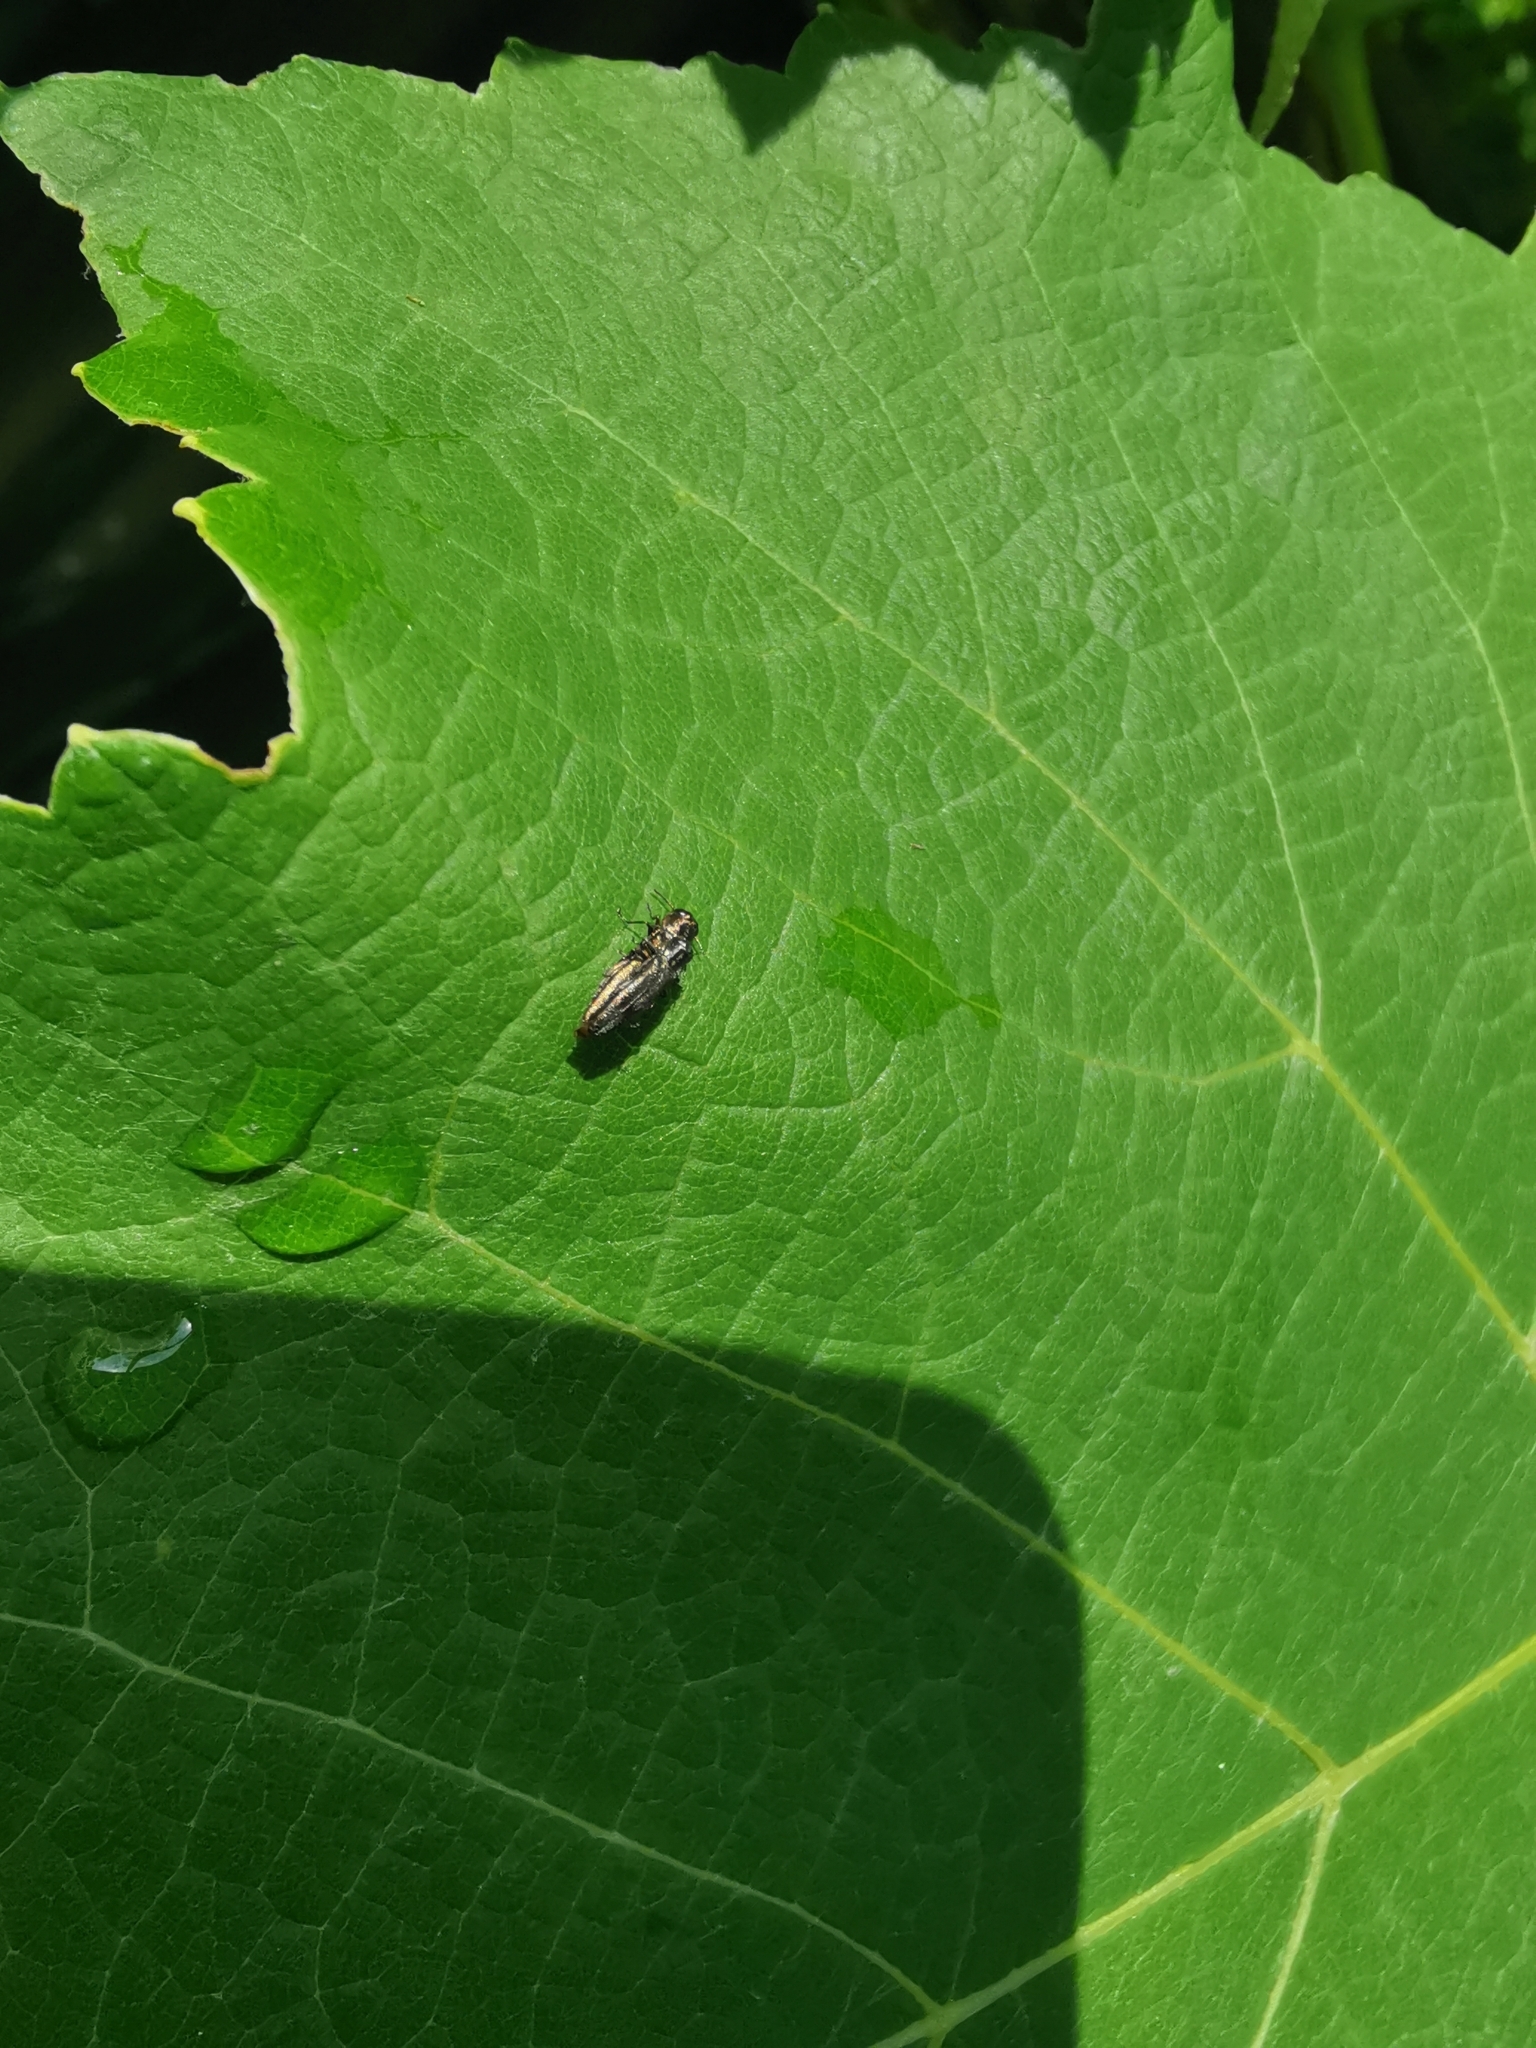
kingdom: Animalia
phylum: Arthropoda
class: Insecta
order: Coleoptera
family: Buprestidae
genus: Agrilus
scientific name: Agrilus derasofasciatus
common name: Metallic wood-boring beetle
